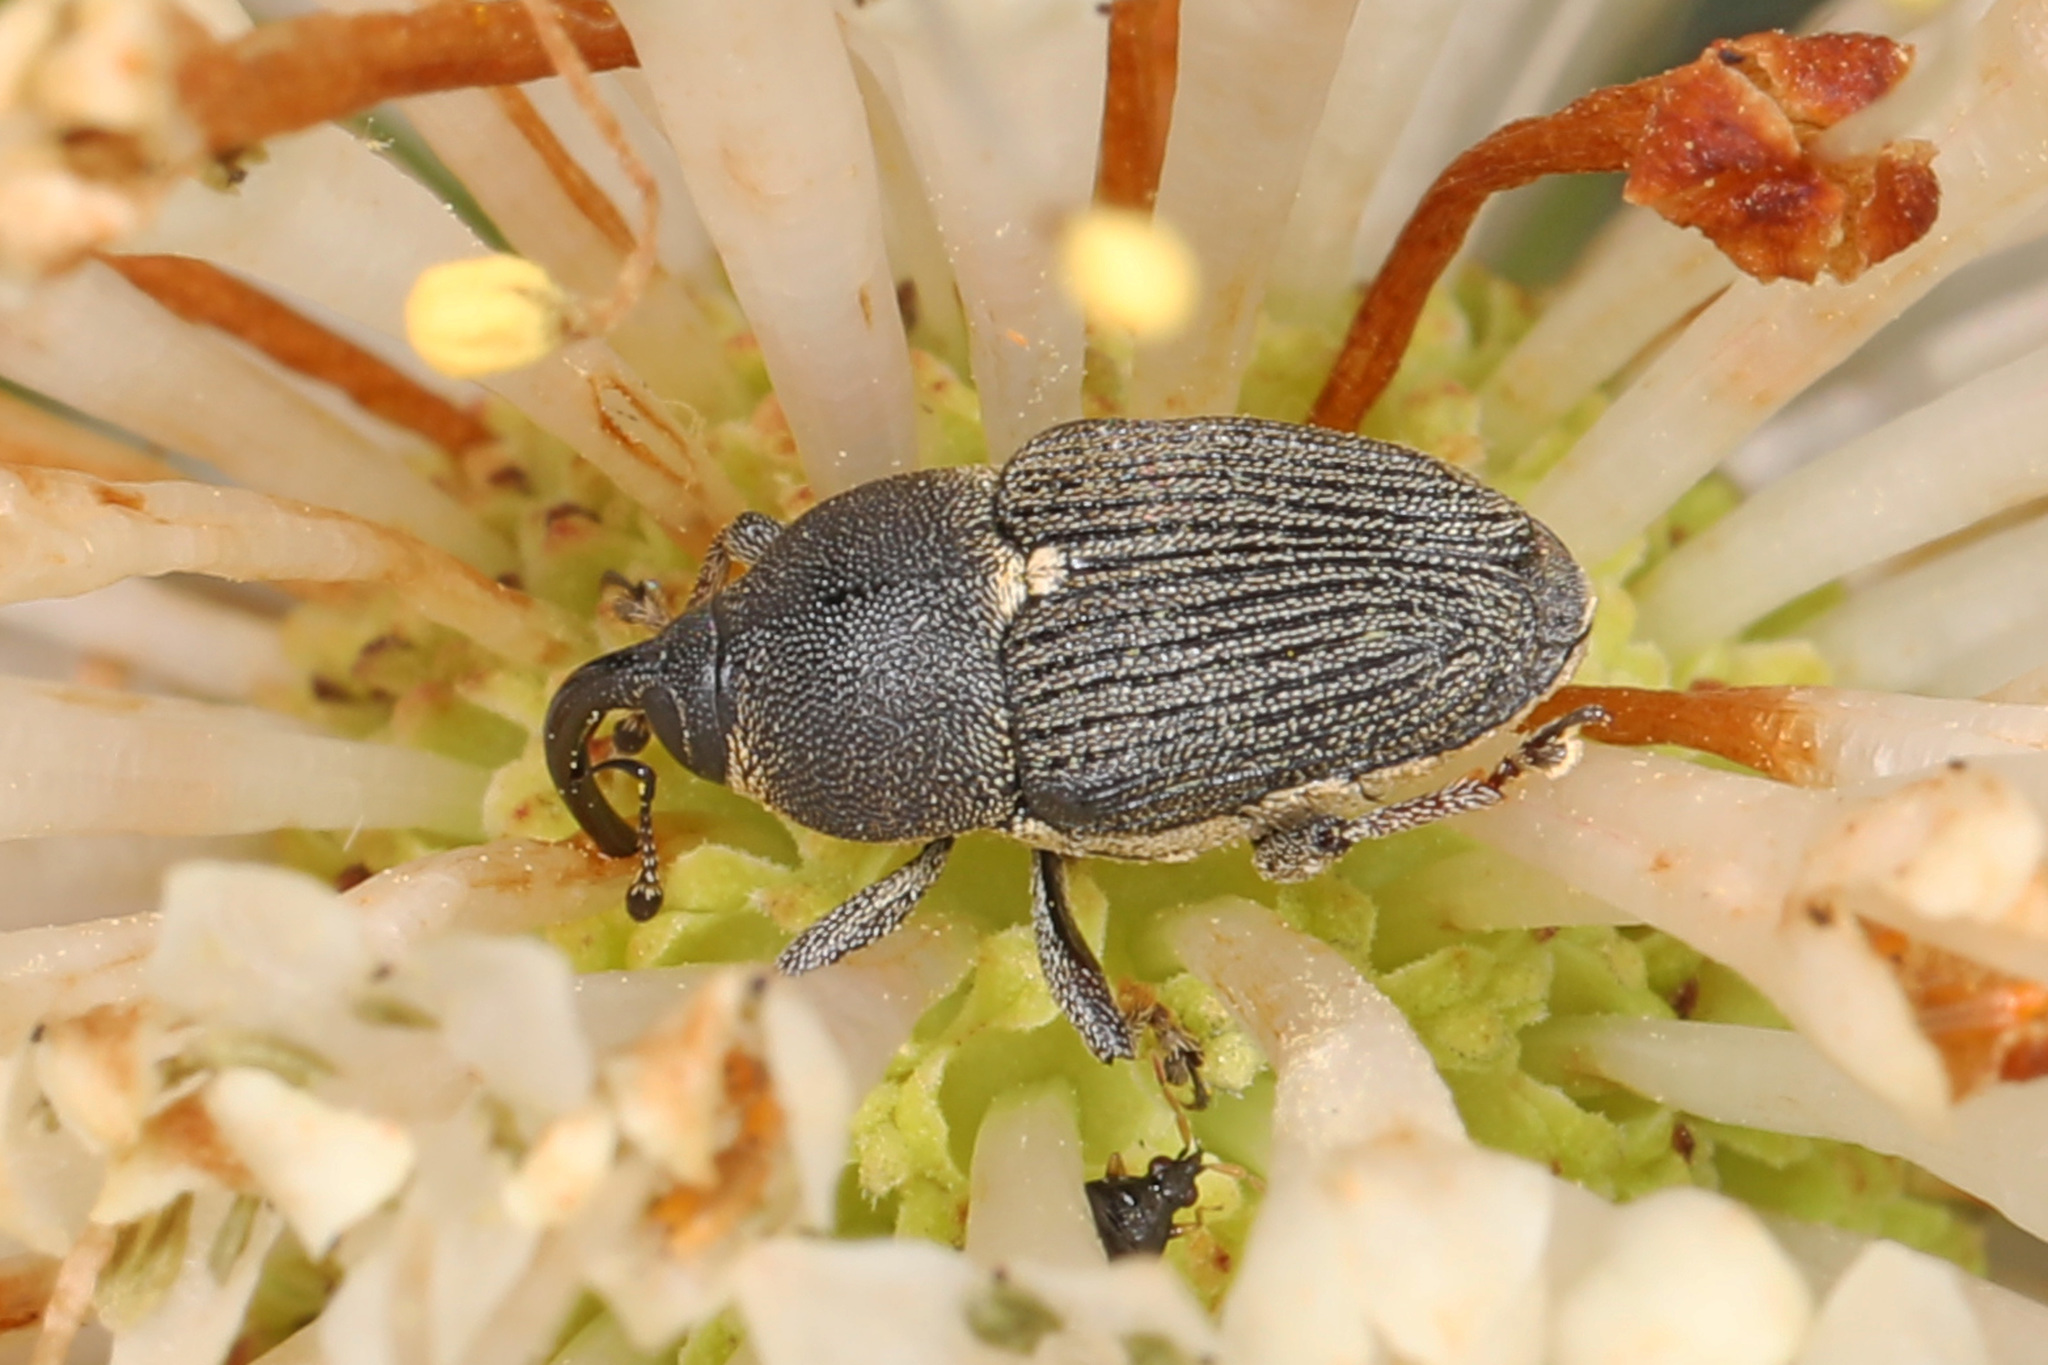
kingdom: Animalia
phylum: Arthropoda
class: Insecta
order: Coleoptera
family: Curculionidae
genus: Odontocorynus
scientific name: Odontocorynus salebrosus
